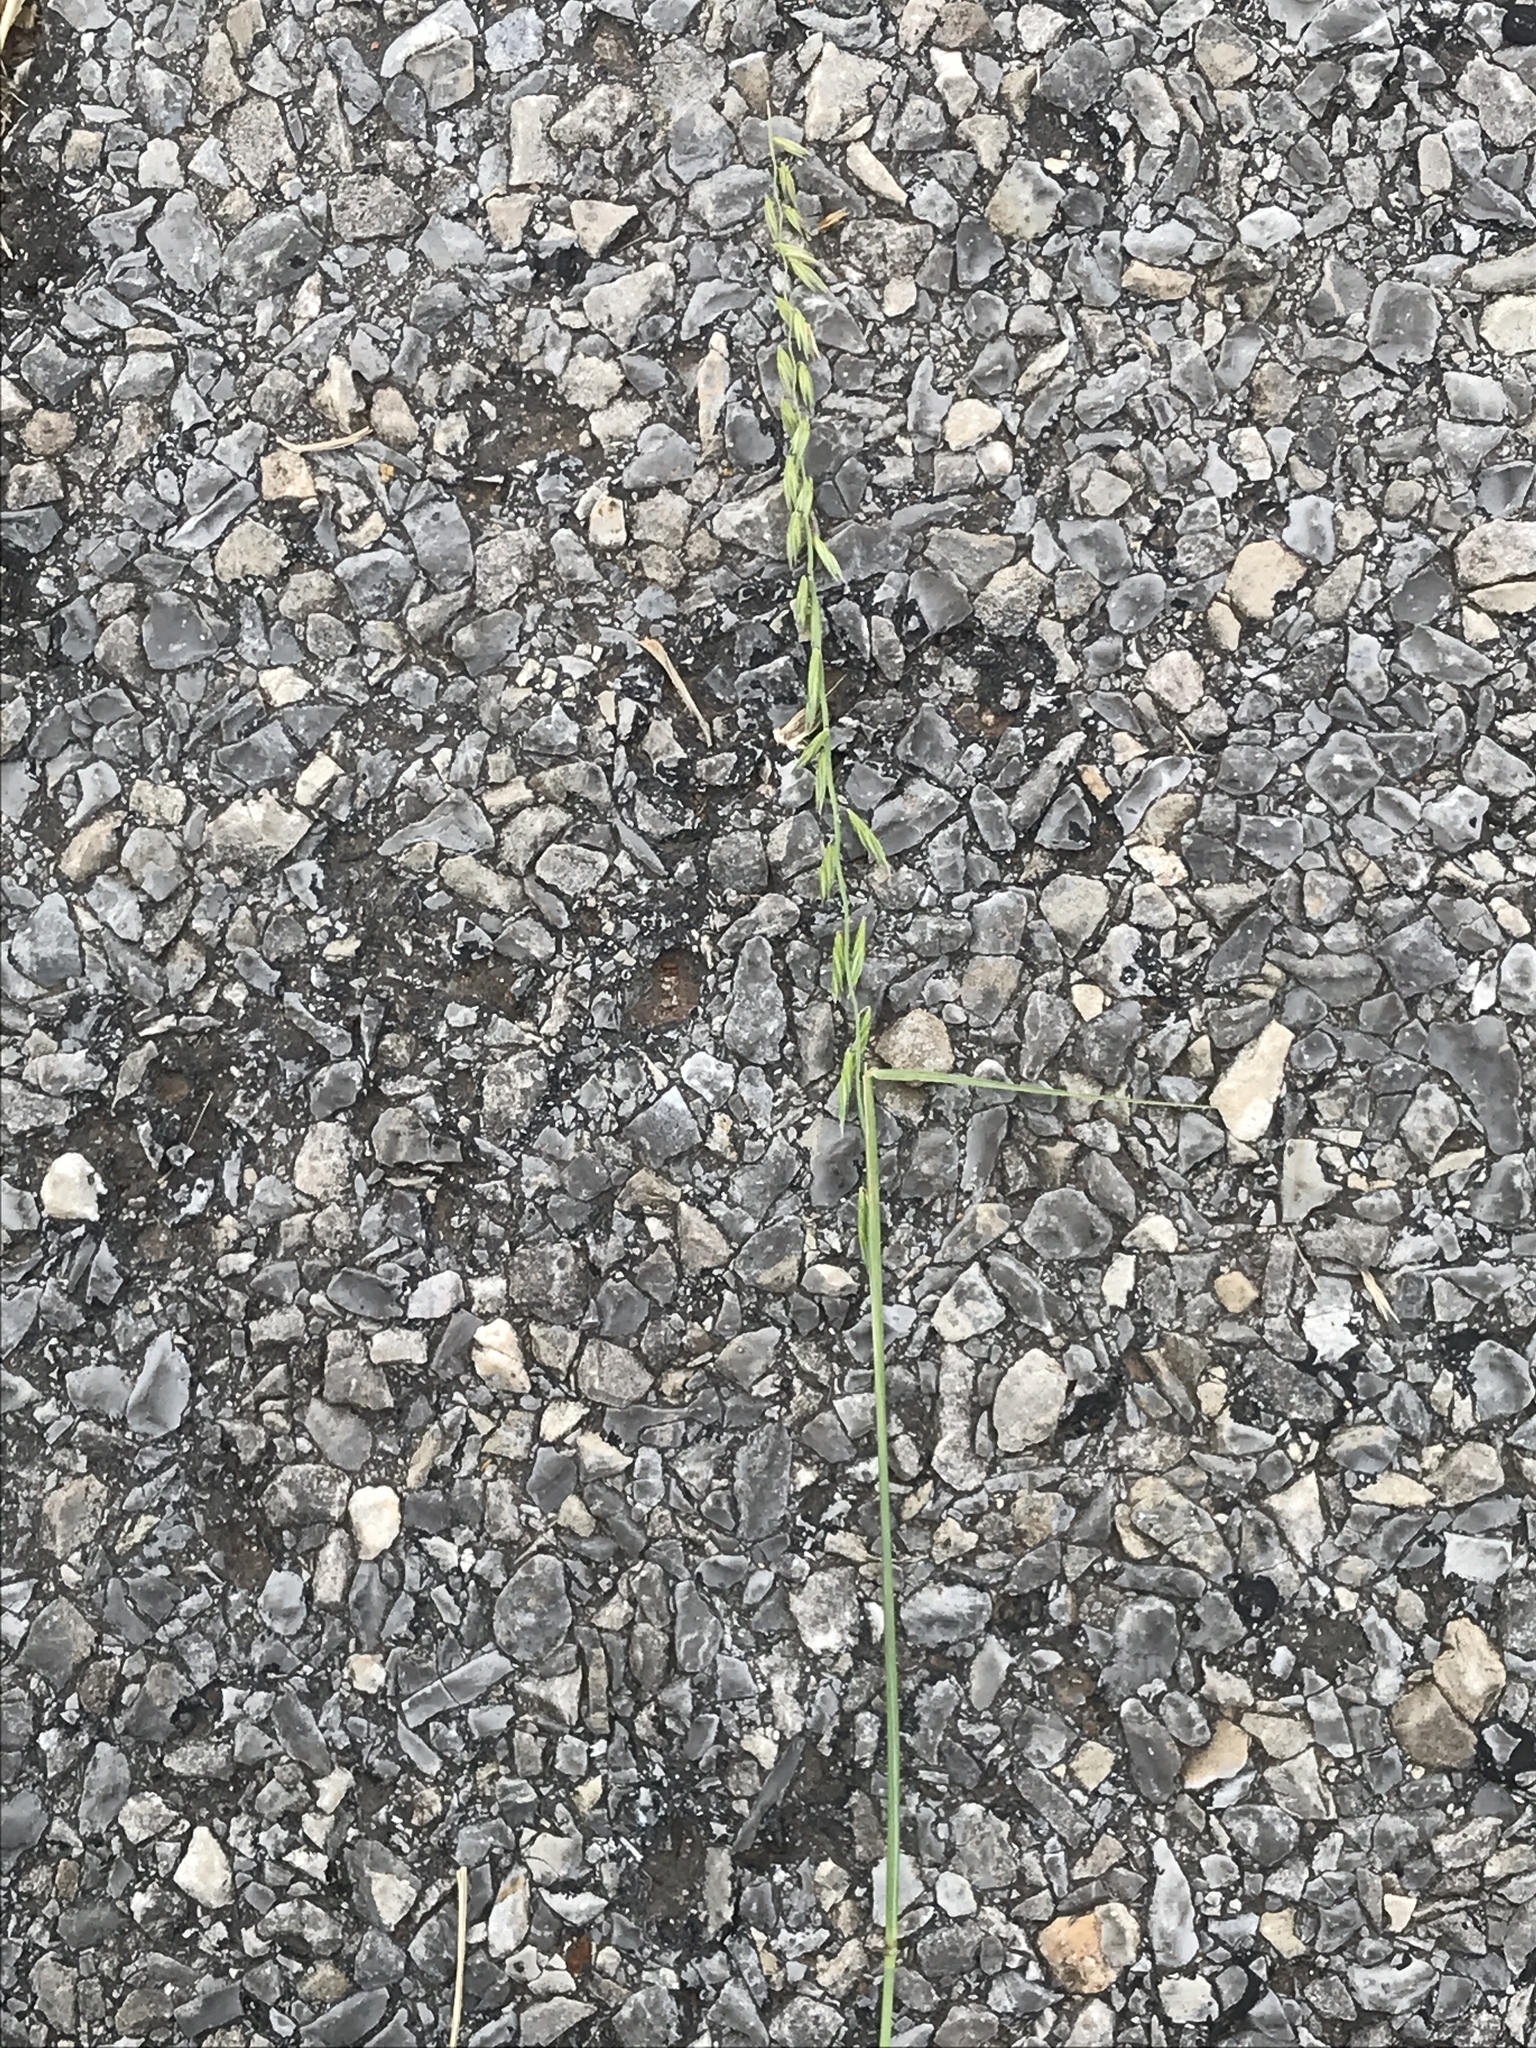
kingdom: Plantae
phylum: Tracheophyta
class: Liliopsida
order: Poales
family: Poaceae
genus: Bouteloua
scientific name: Bouteloua curtipendula
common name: Side-oats grama
